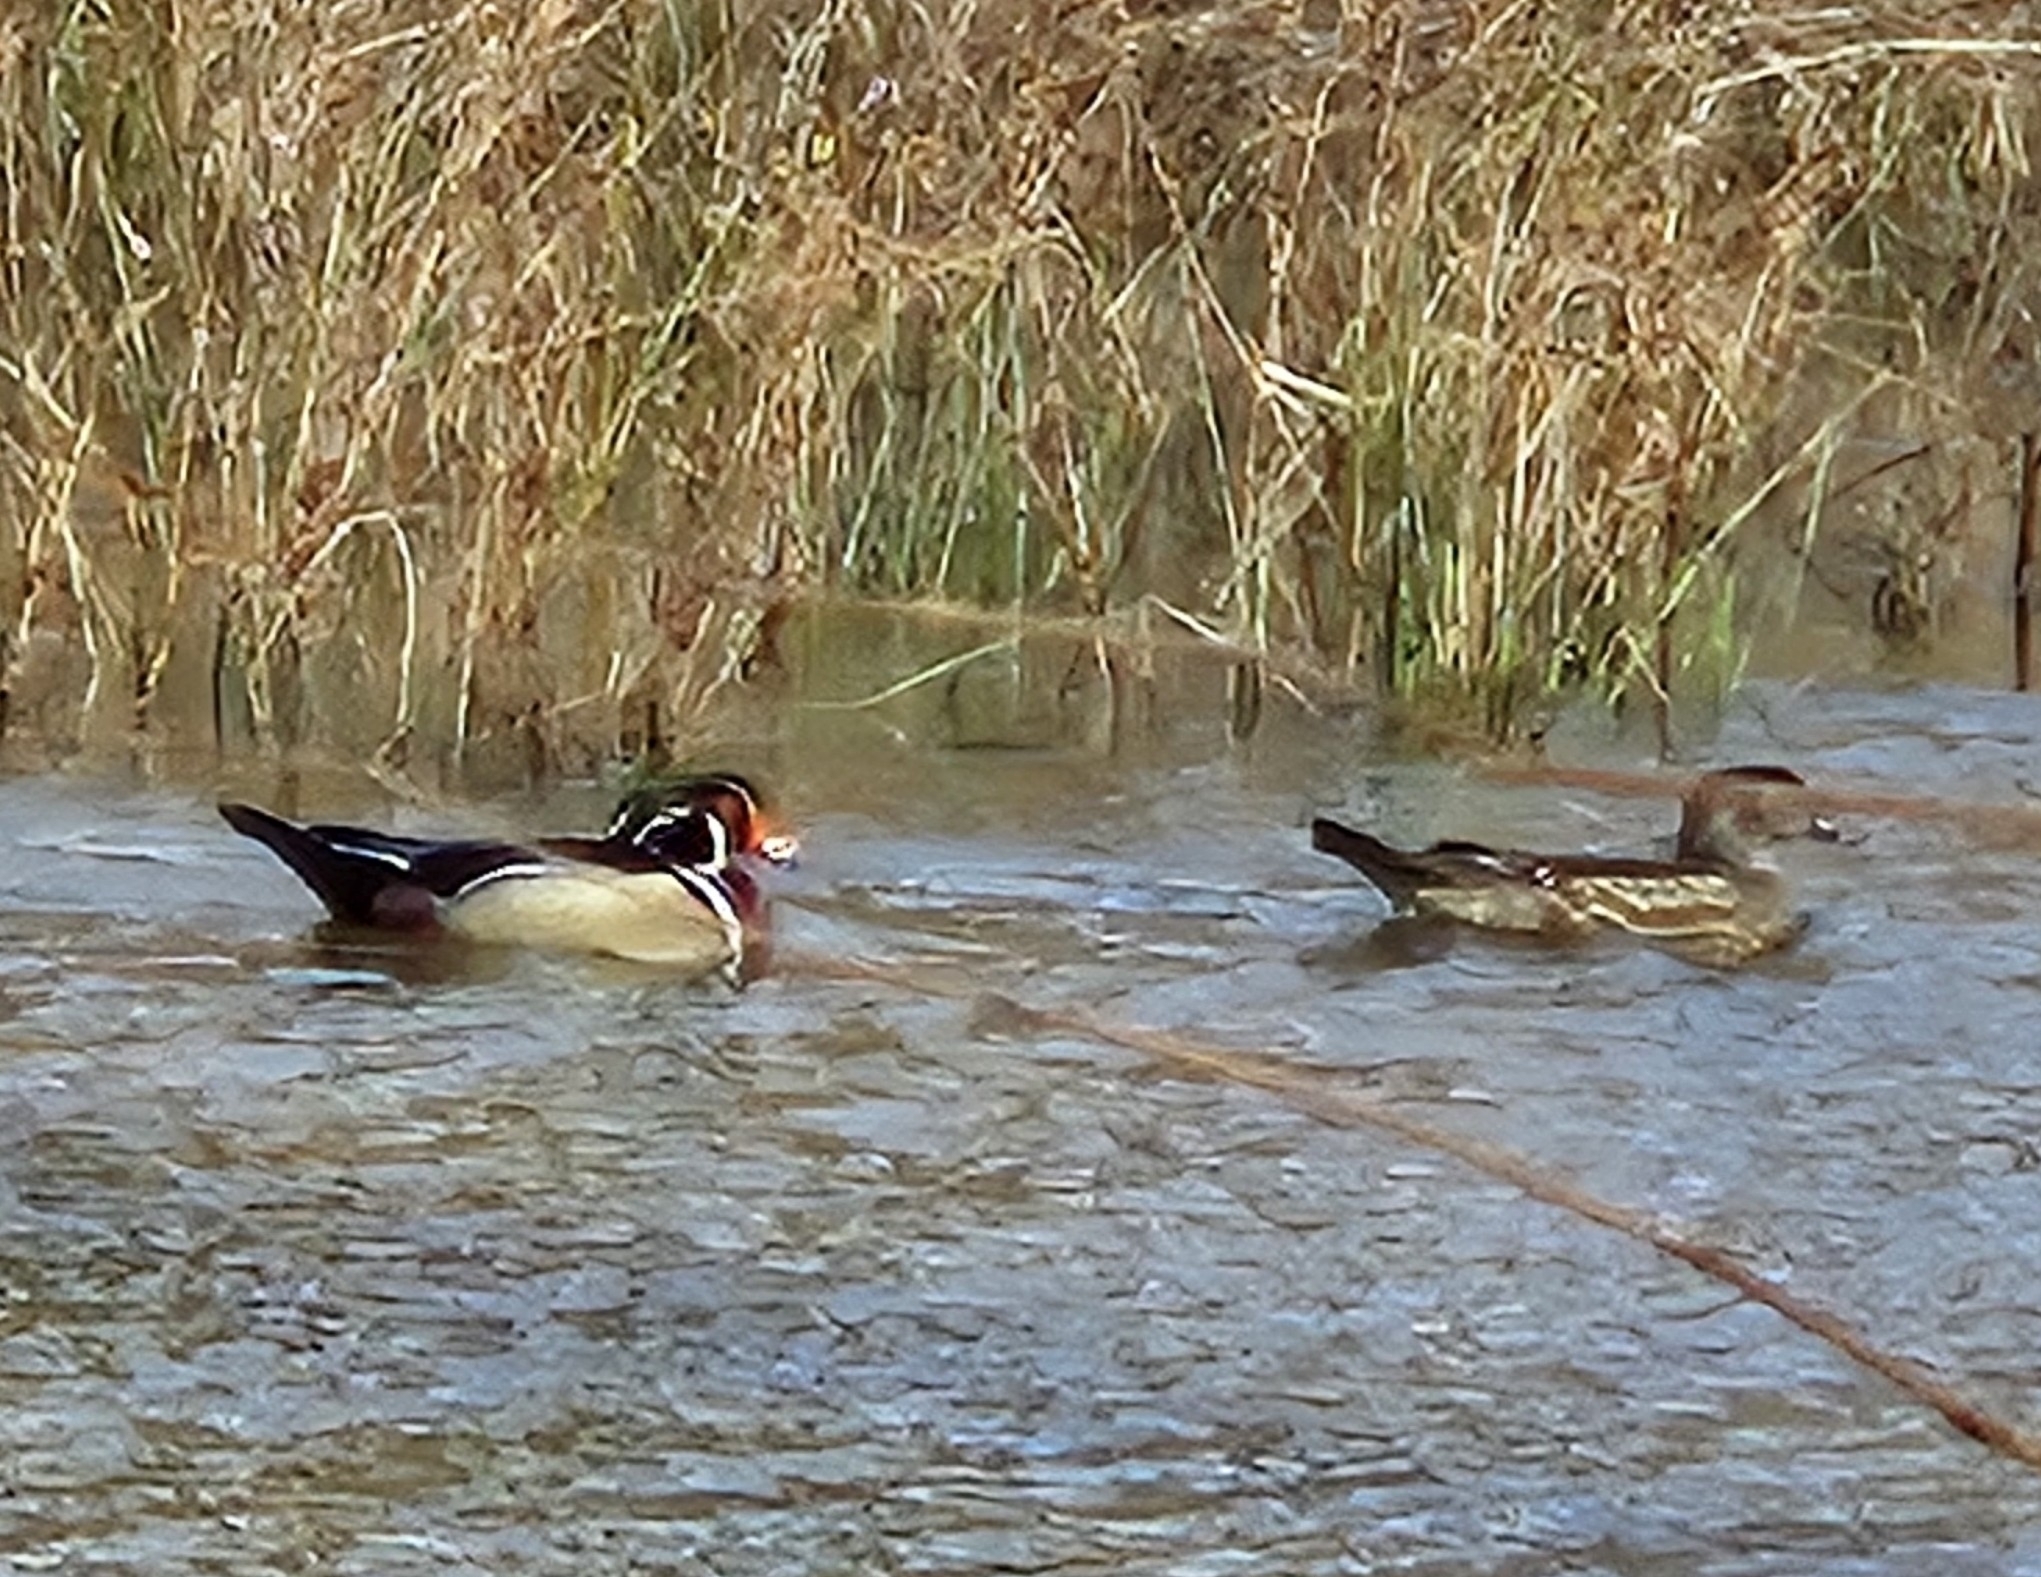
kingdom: Animalia
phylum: Chordata
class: Aves
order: Anseriformes
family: Anatidae
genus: Aix
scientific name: Aix sponsa
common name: Wood duck
